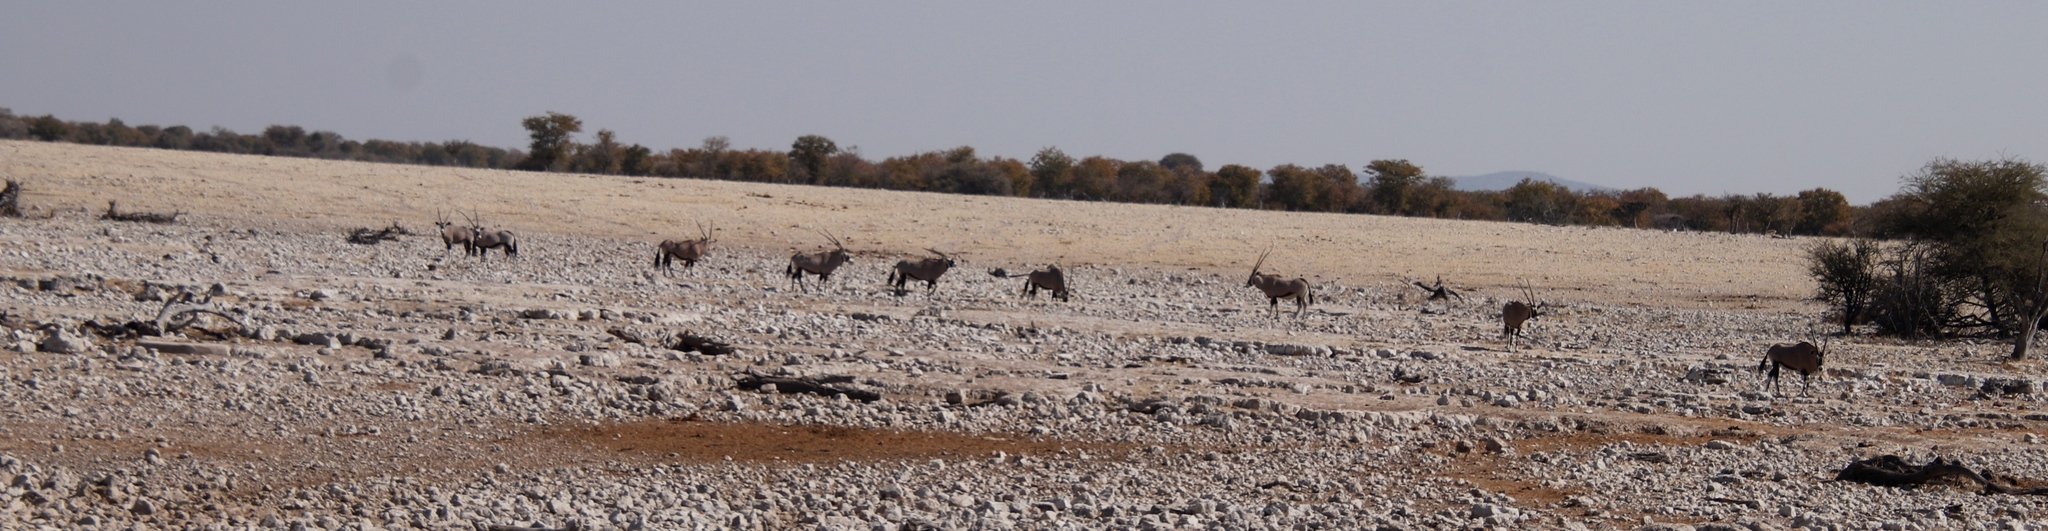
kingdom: Animalia
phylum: Chordata
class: Mammalia
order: Artiodactyla
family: Bovidae
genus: Oryx
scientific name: Oryx gazella
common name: Gemsbok
